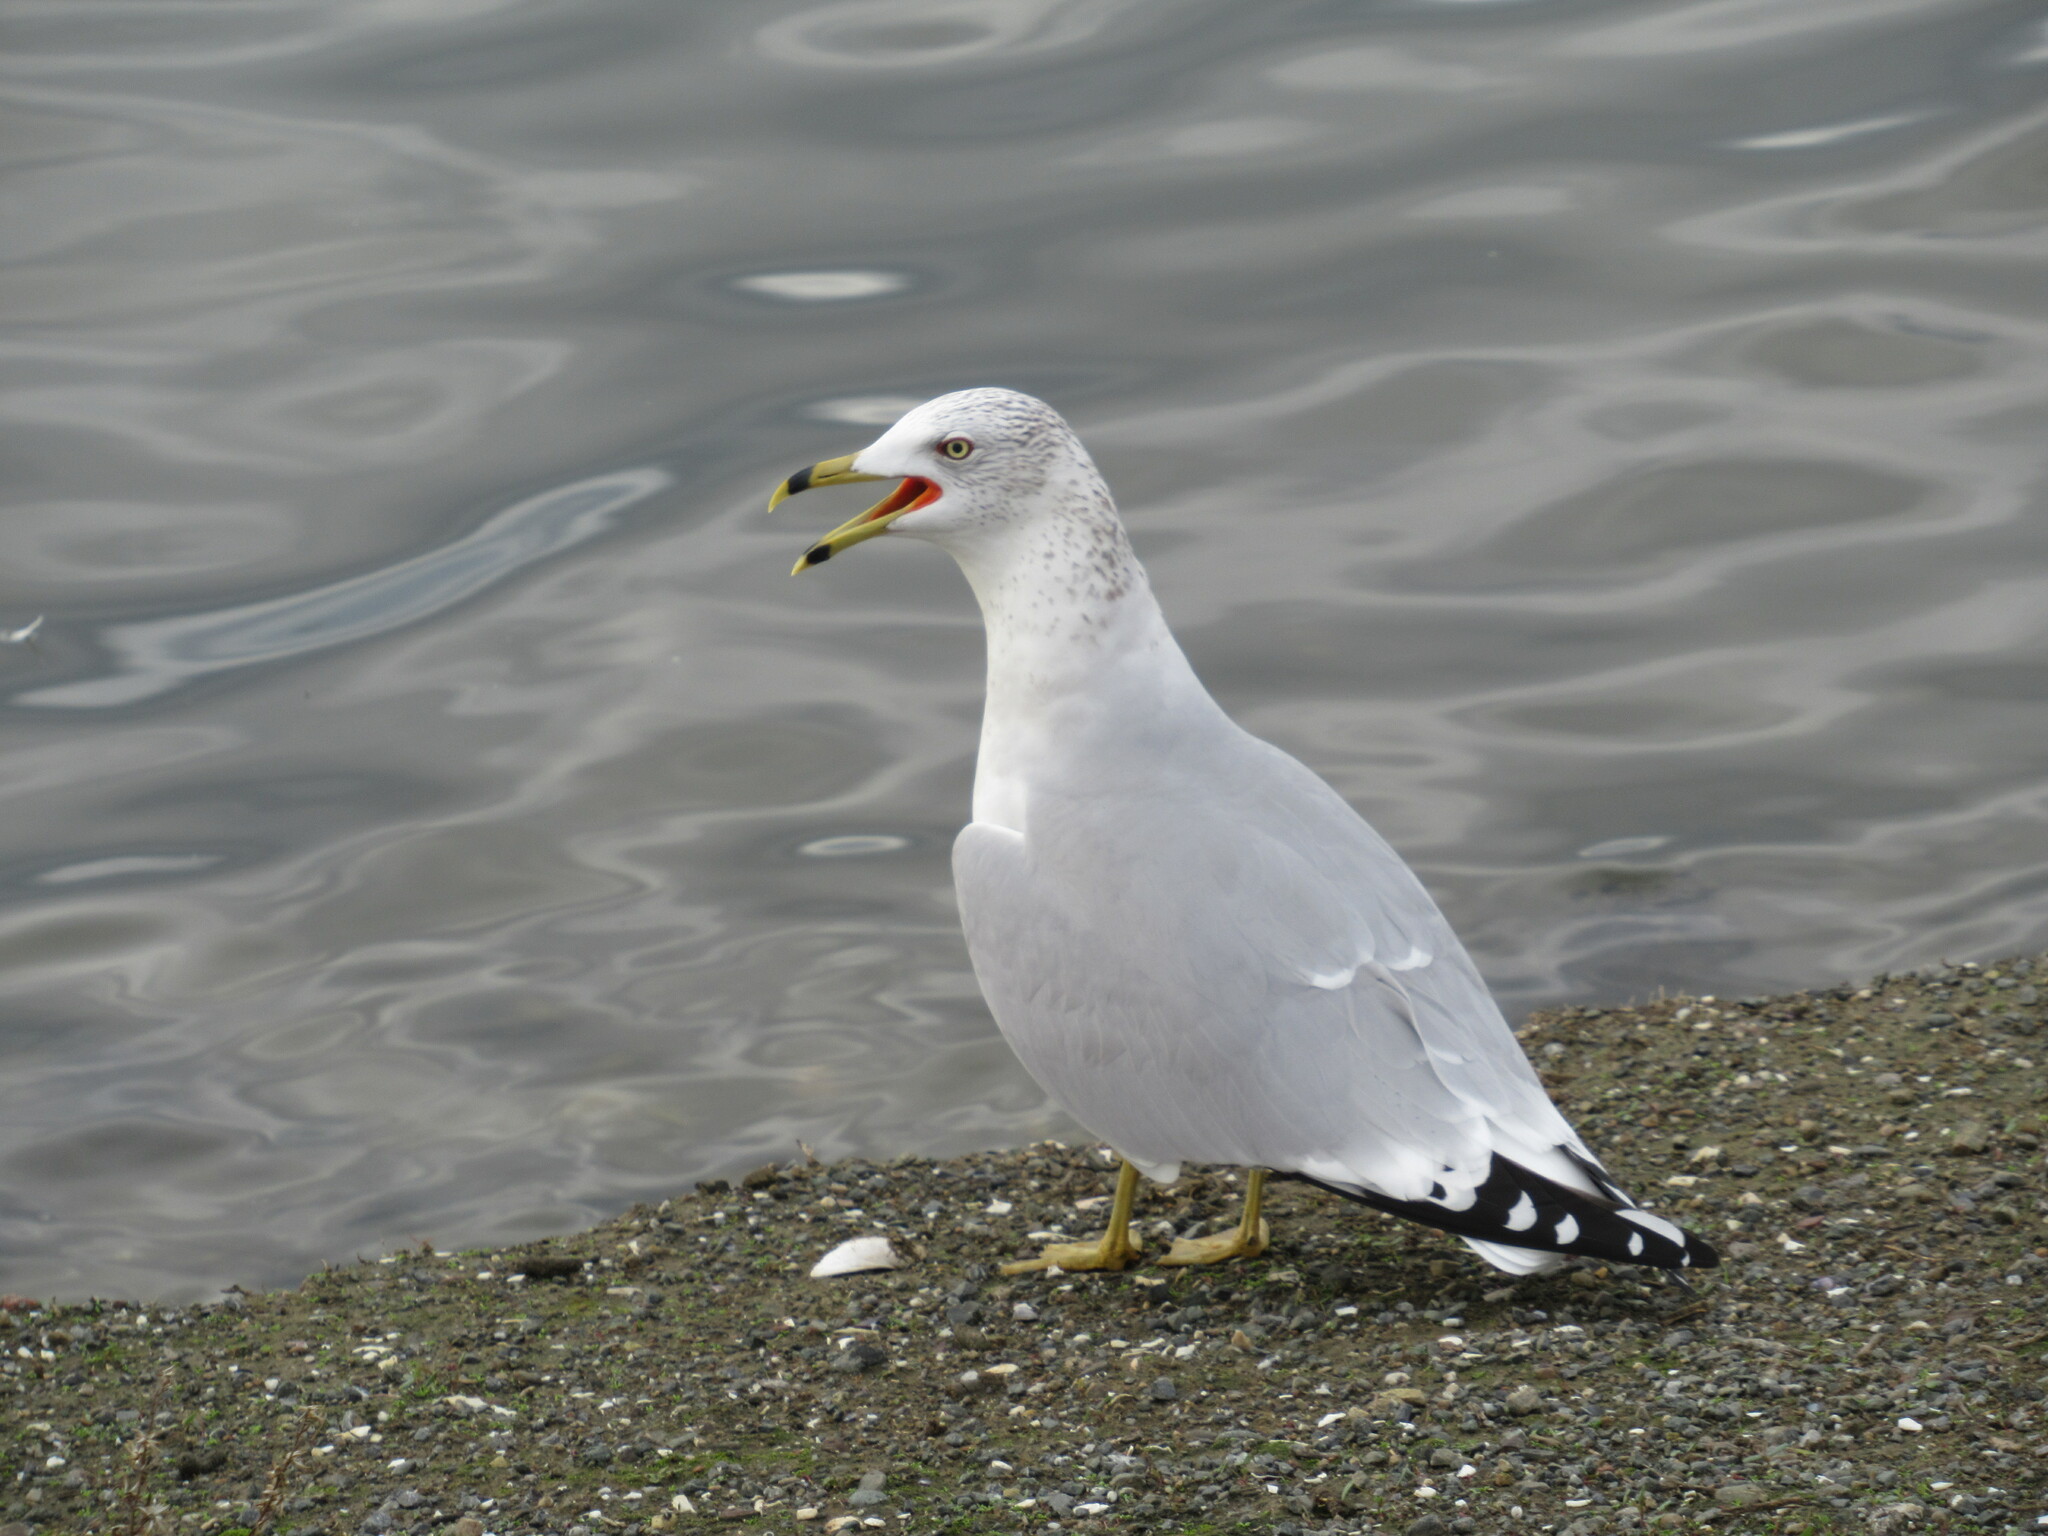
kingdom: Animalia
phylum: Chordata
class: Aves
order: Charadriiformes
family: Laridae
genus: Larus
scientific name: Larus delawarensis
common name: Ring-billed gull
